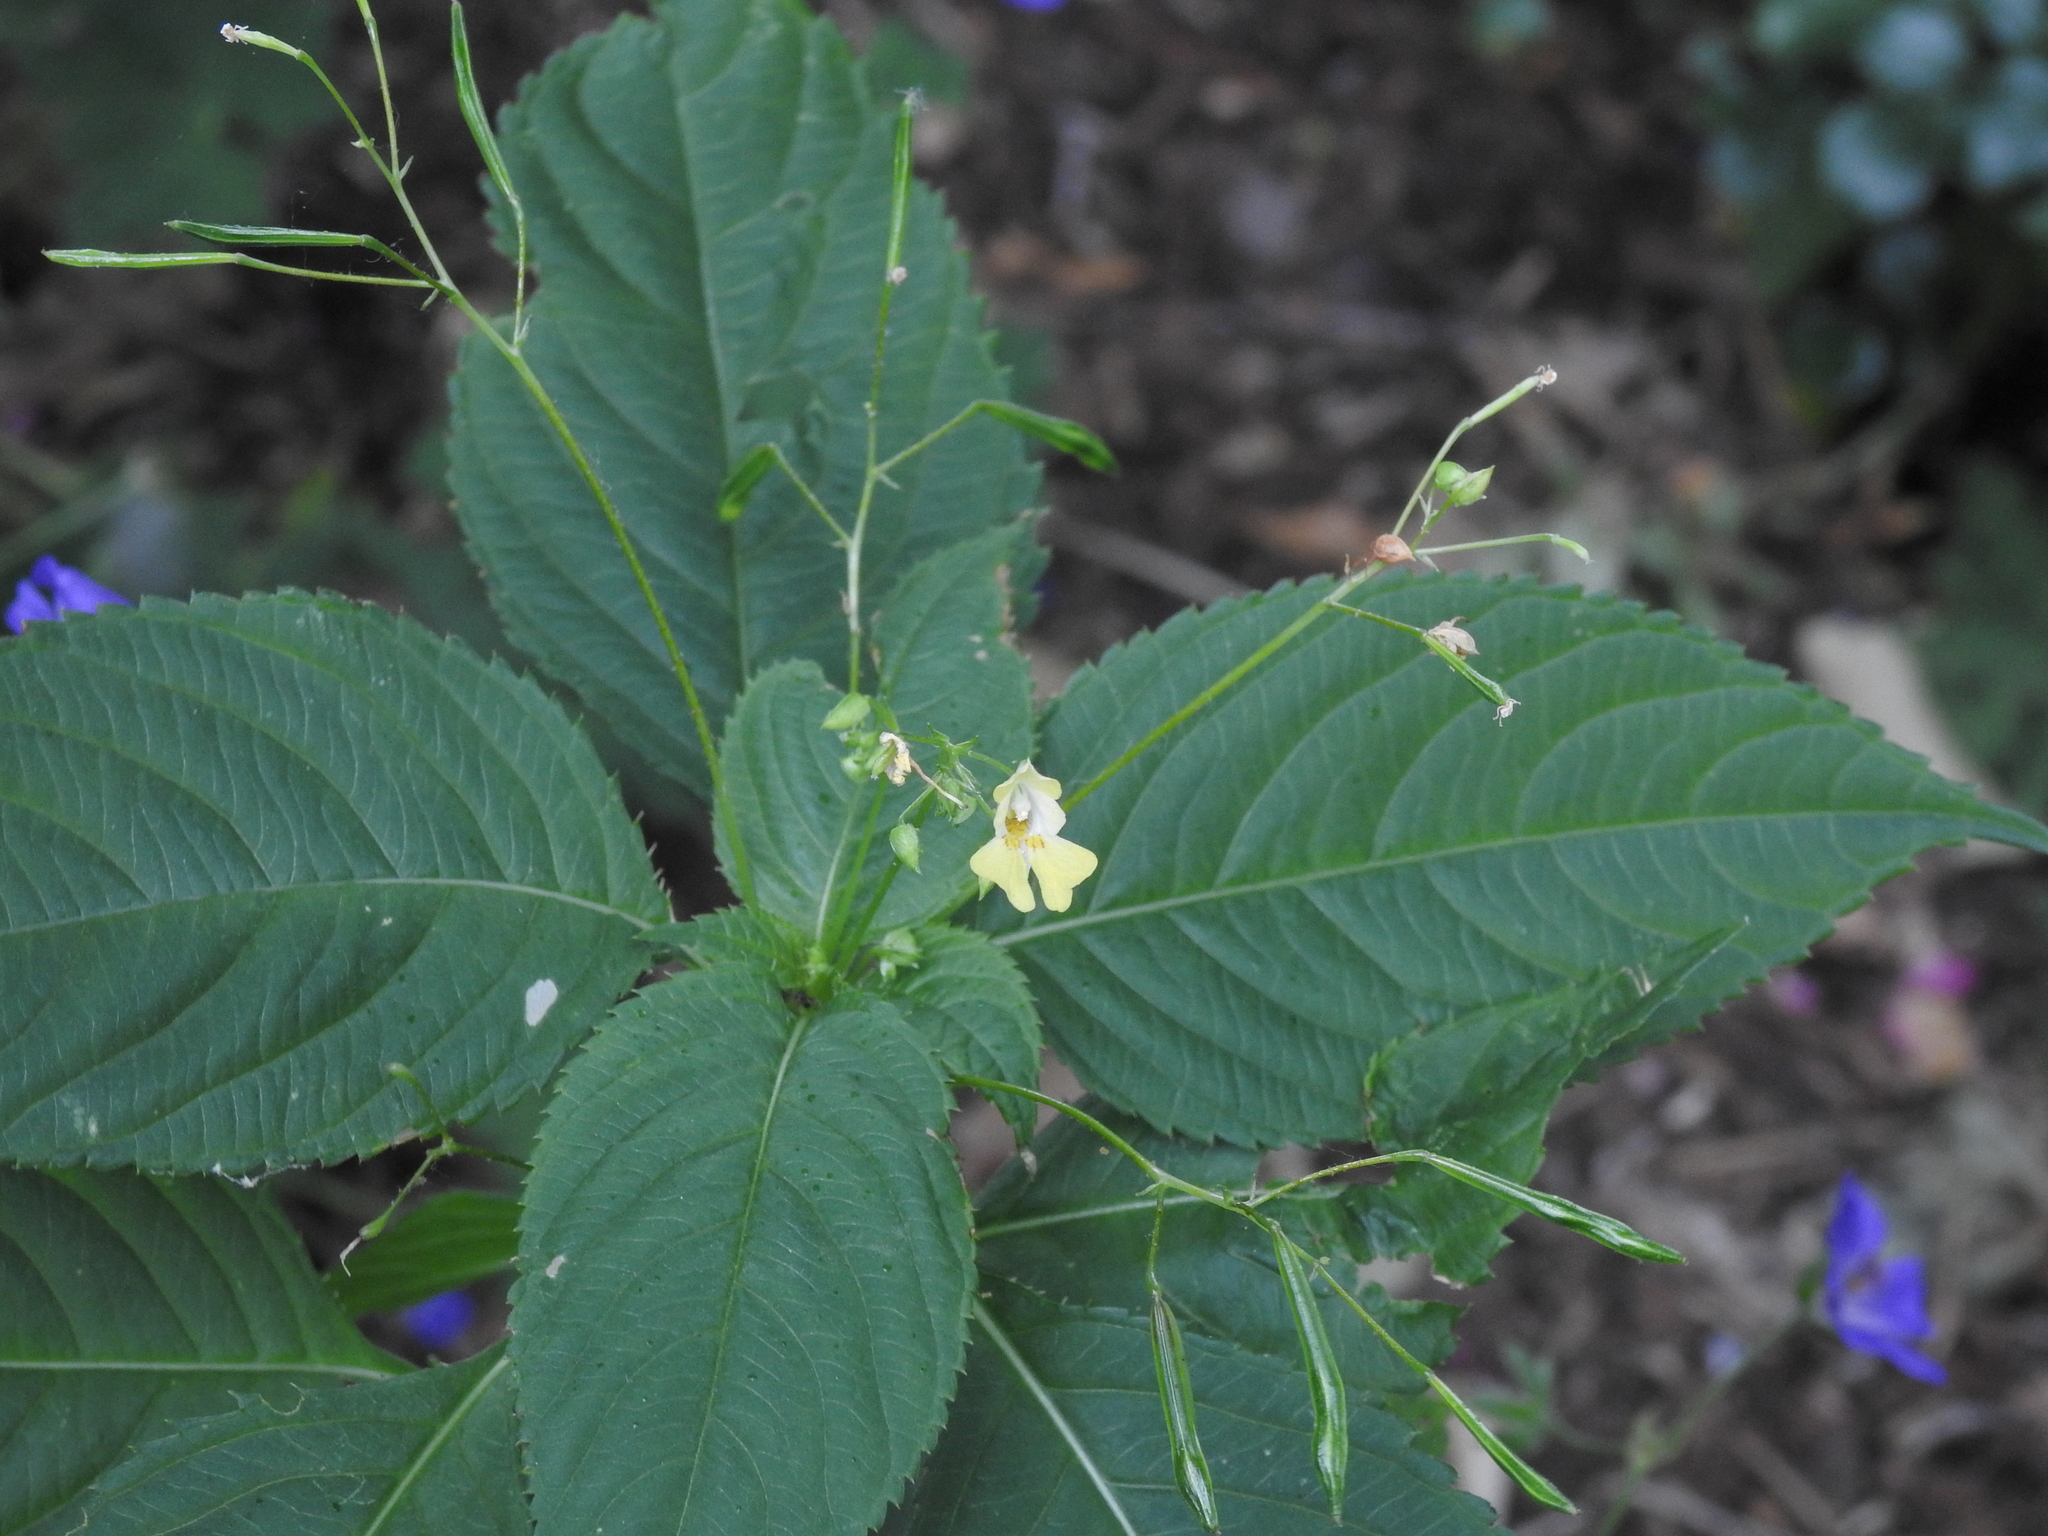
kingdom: Plantae
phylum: Tracheophyta
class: Magnoliopsida
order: Ericales
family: Balsaminaceae
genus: Impatiens
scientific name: Impatiens parviflora
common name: Small balsam
